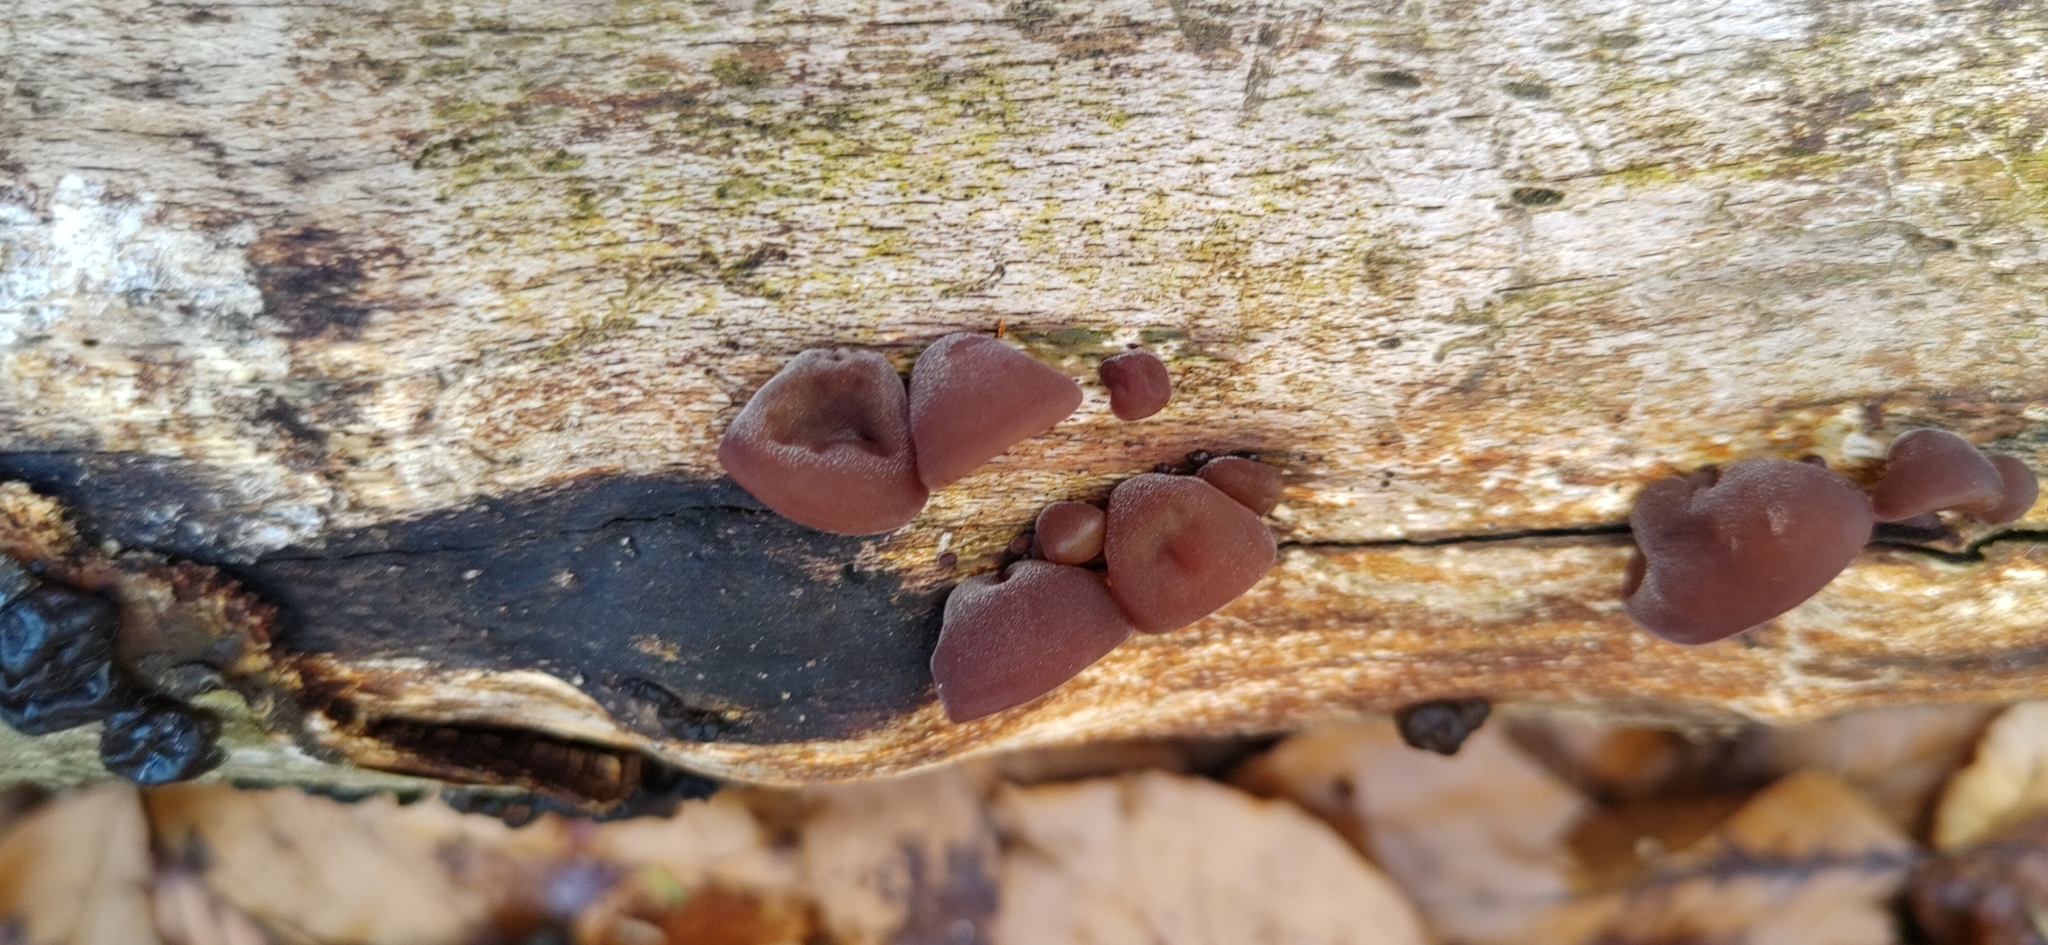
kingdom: Fungi
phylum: Basidiomycota
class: Agaricomycetes
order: Auriculariales
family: Auriculariaceae
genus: Auricularia
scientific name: Auricularia auricula-judae
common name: Jelly ear
